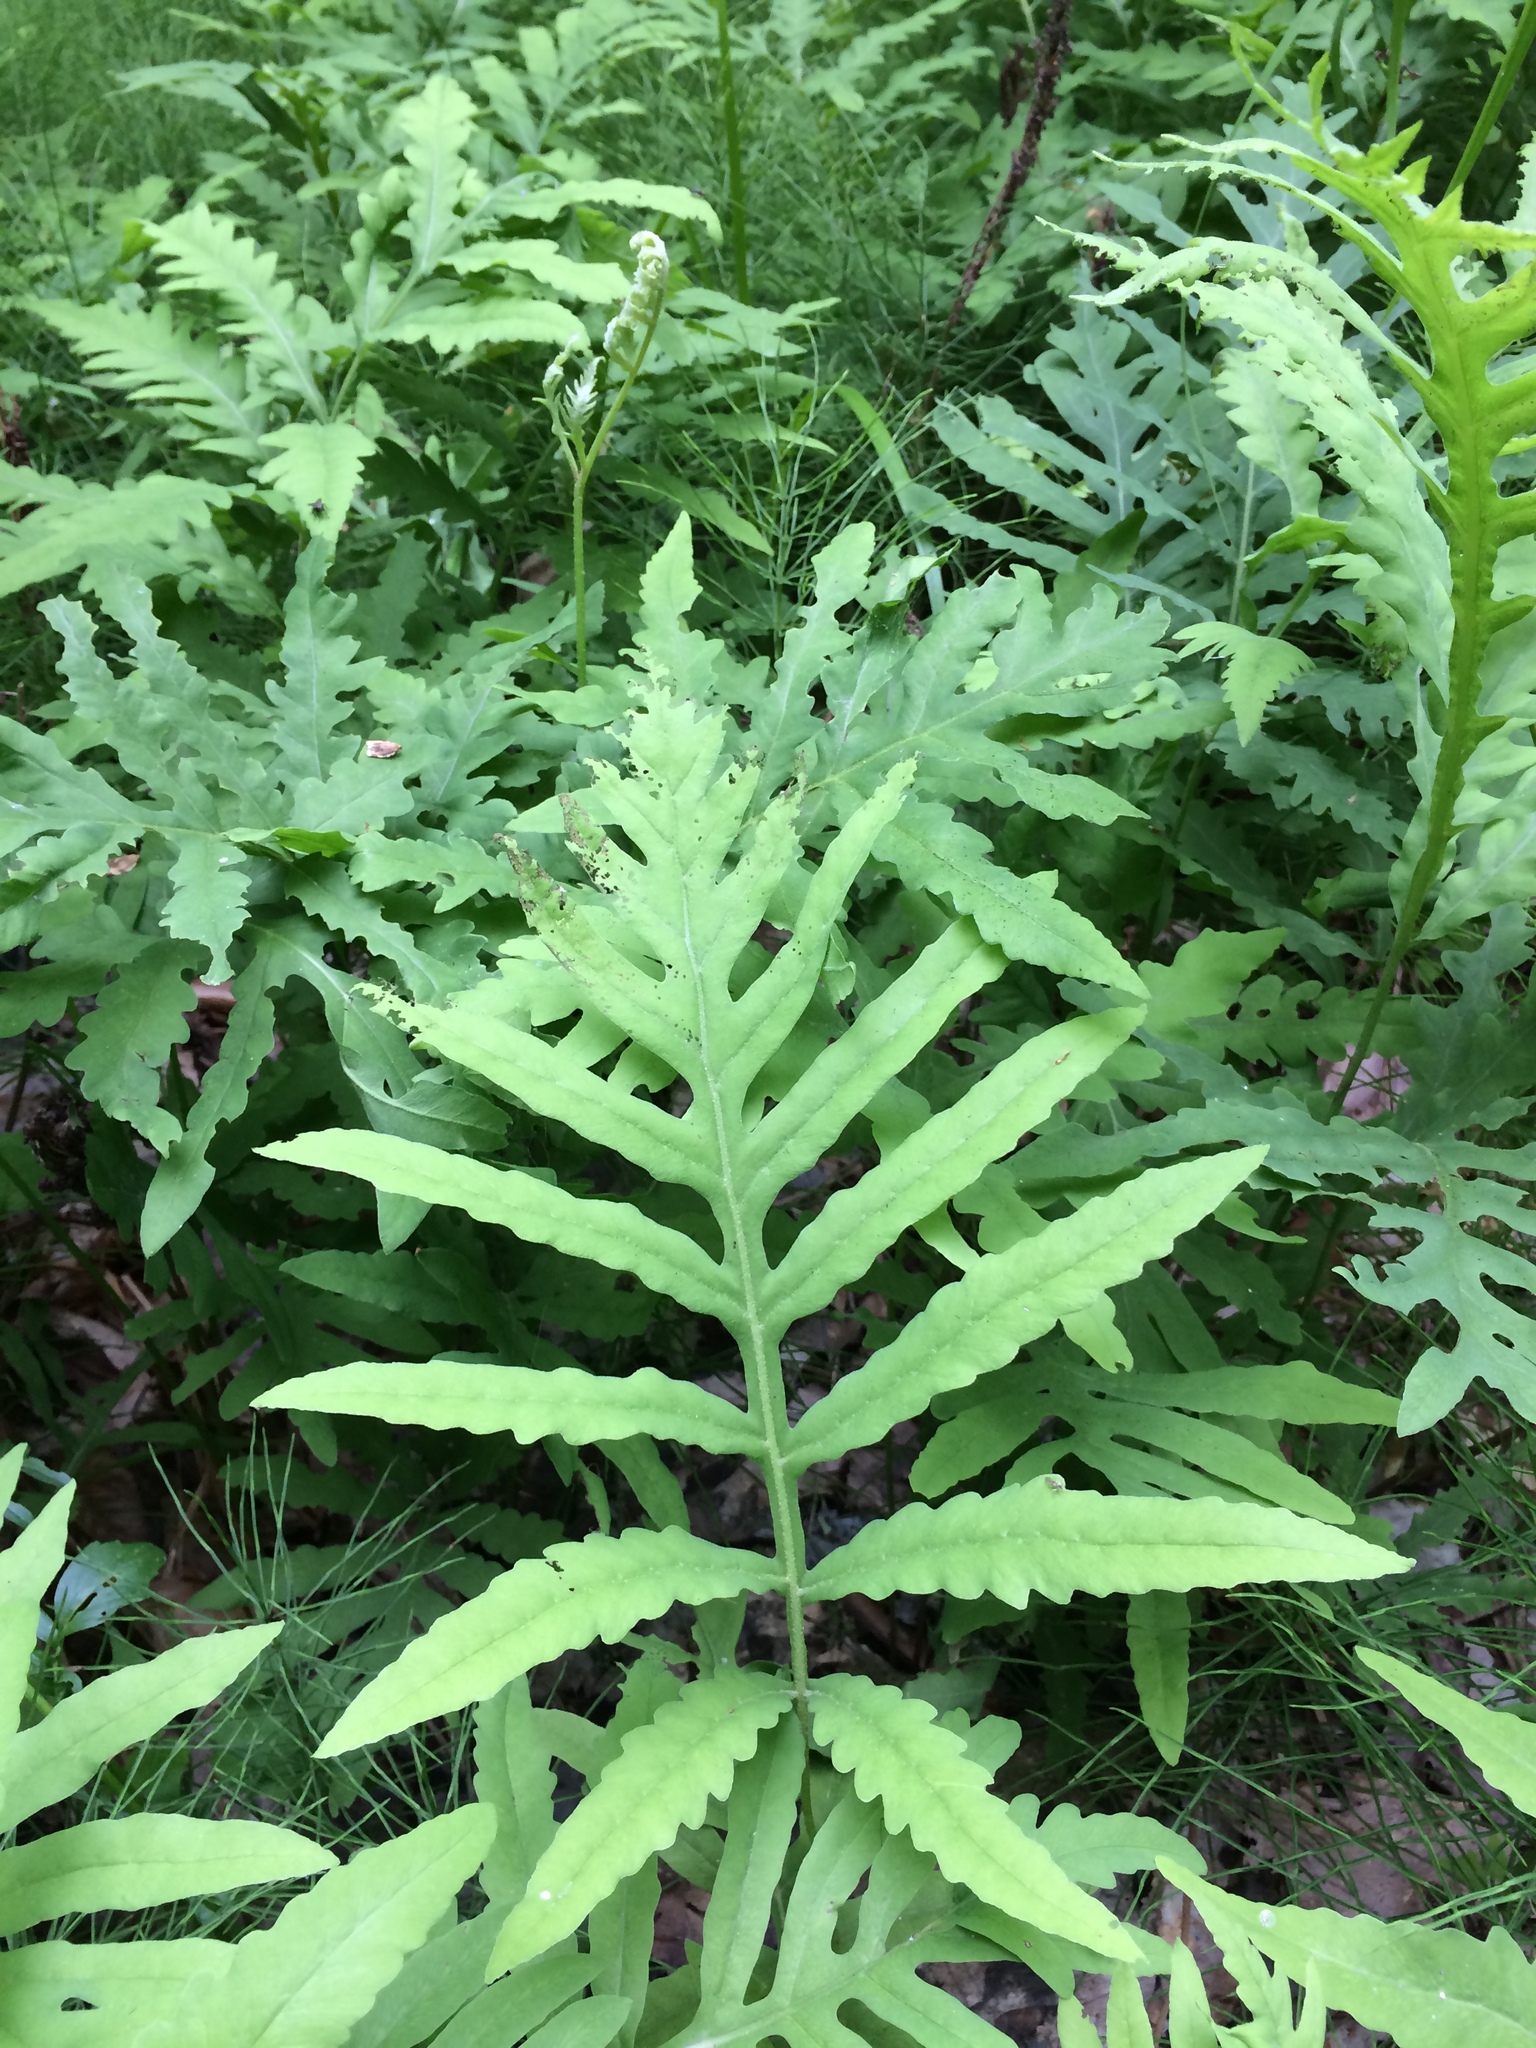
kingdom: Plantae
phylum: Tracheophyta
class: Polypodiopsida
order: Polypodiales
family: Onocleaceae
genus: Onoclea
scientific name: Onoclea sensibilis
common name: Sensitive fern
